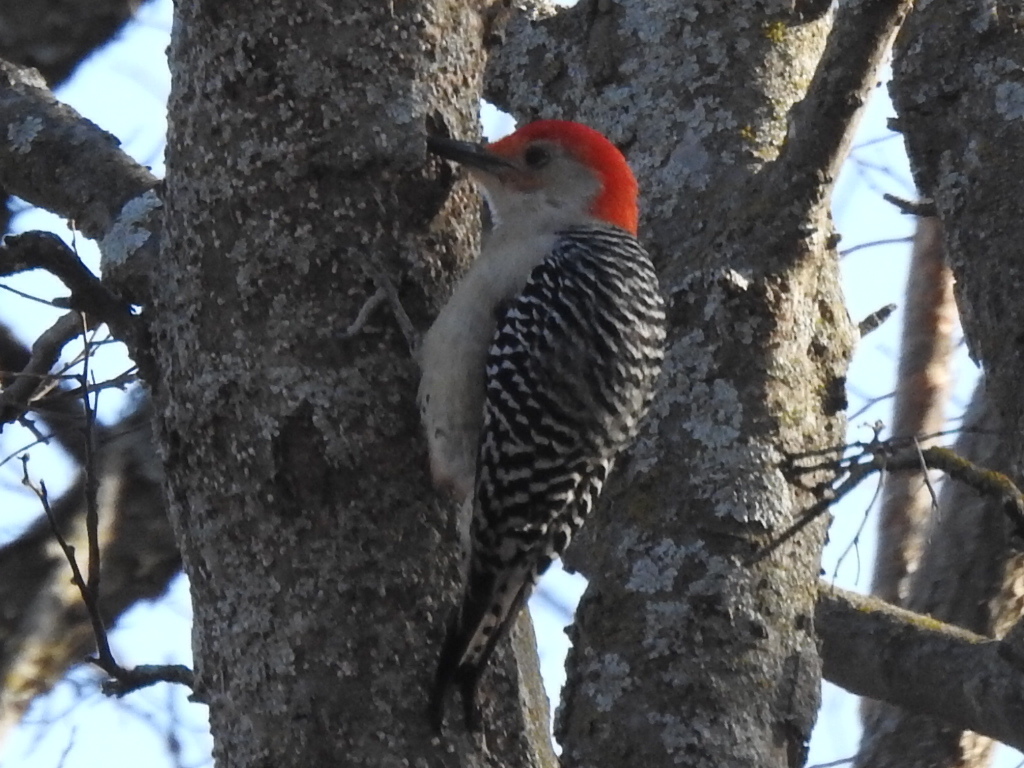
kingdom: Animalia
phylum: Chordata
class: Aves
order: Piciformes
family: Picidae
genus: Melanerpes
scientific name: Melanerpes carolinus
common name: Red-bellied woodpecker
